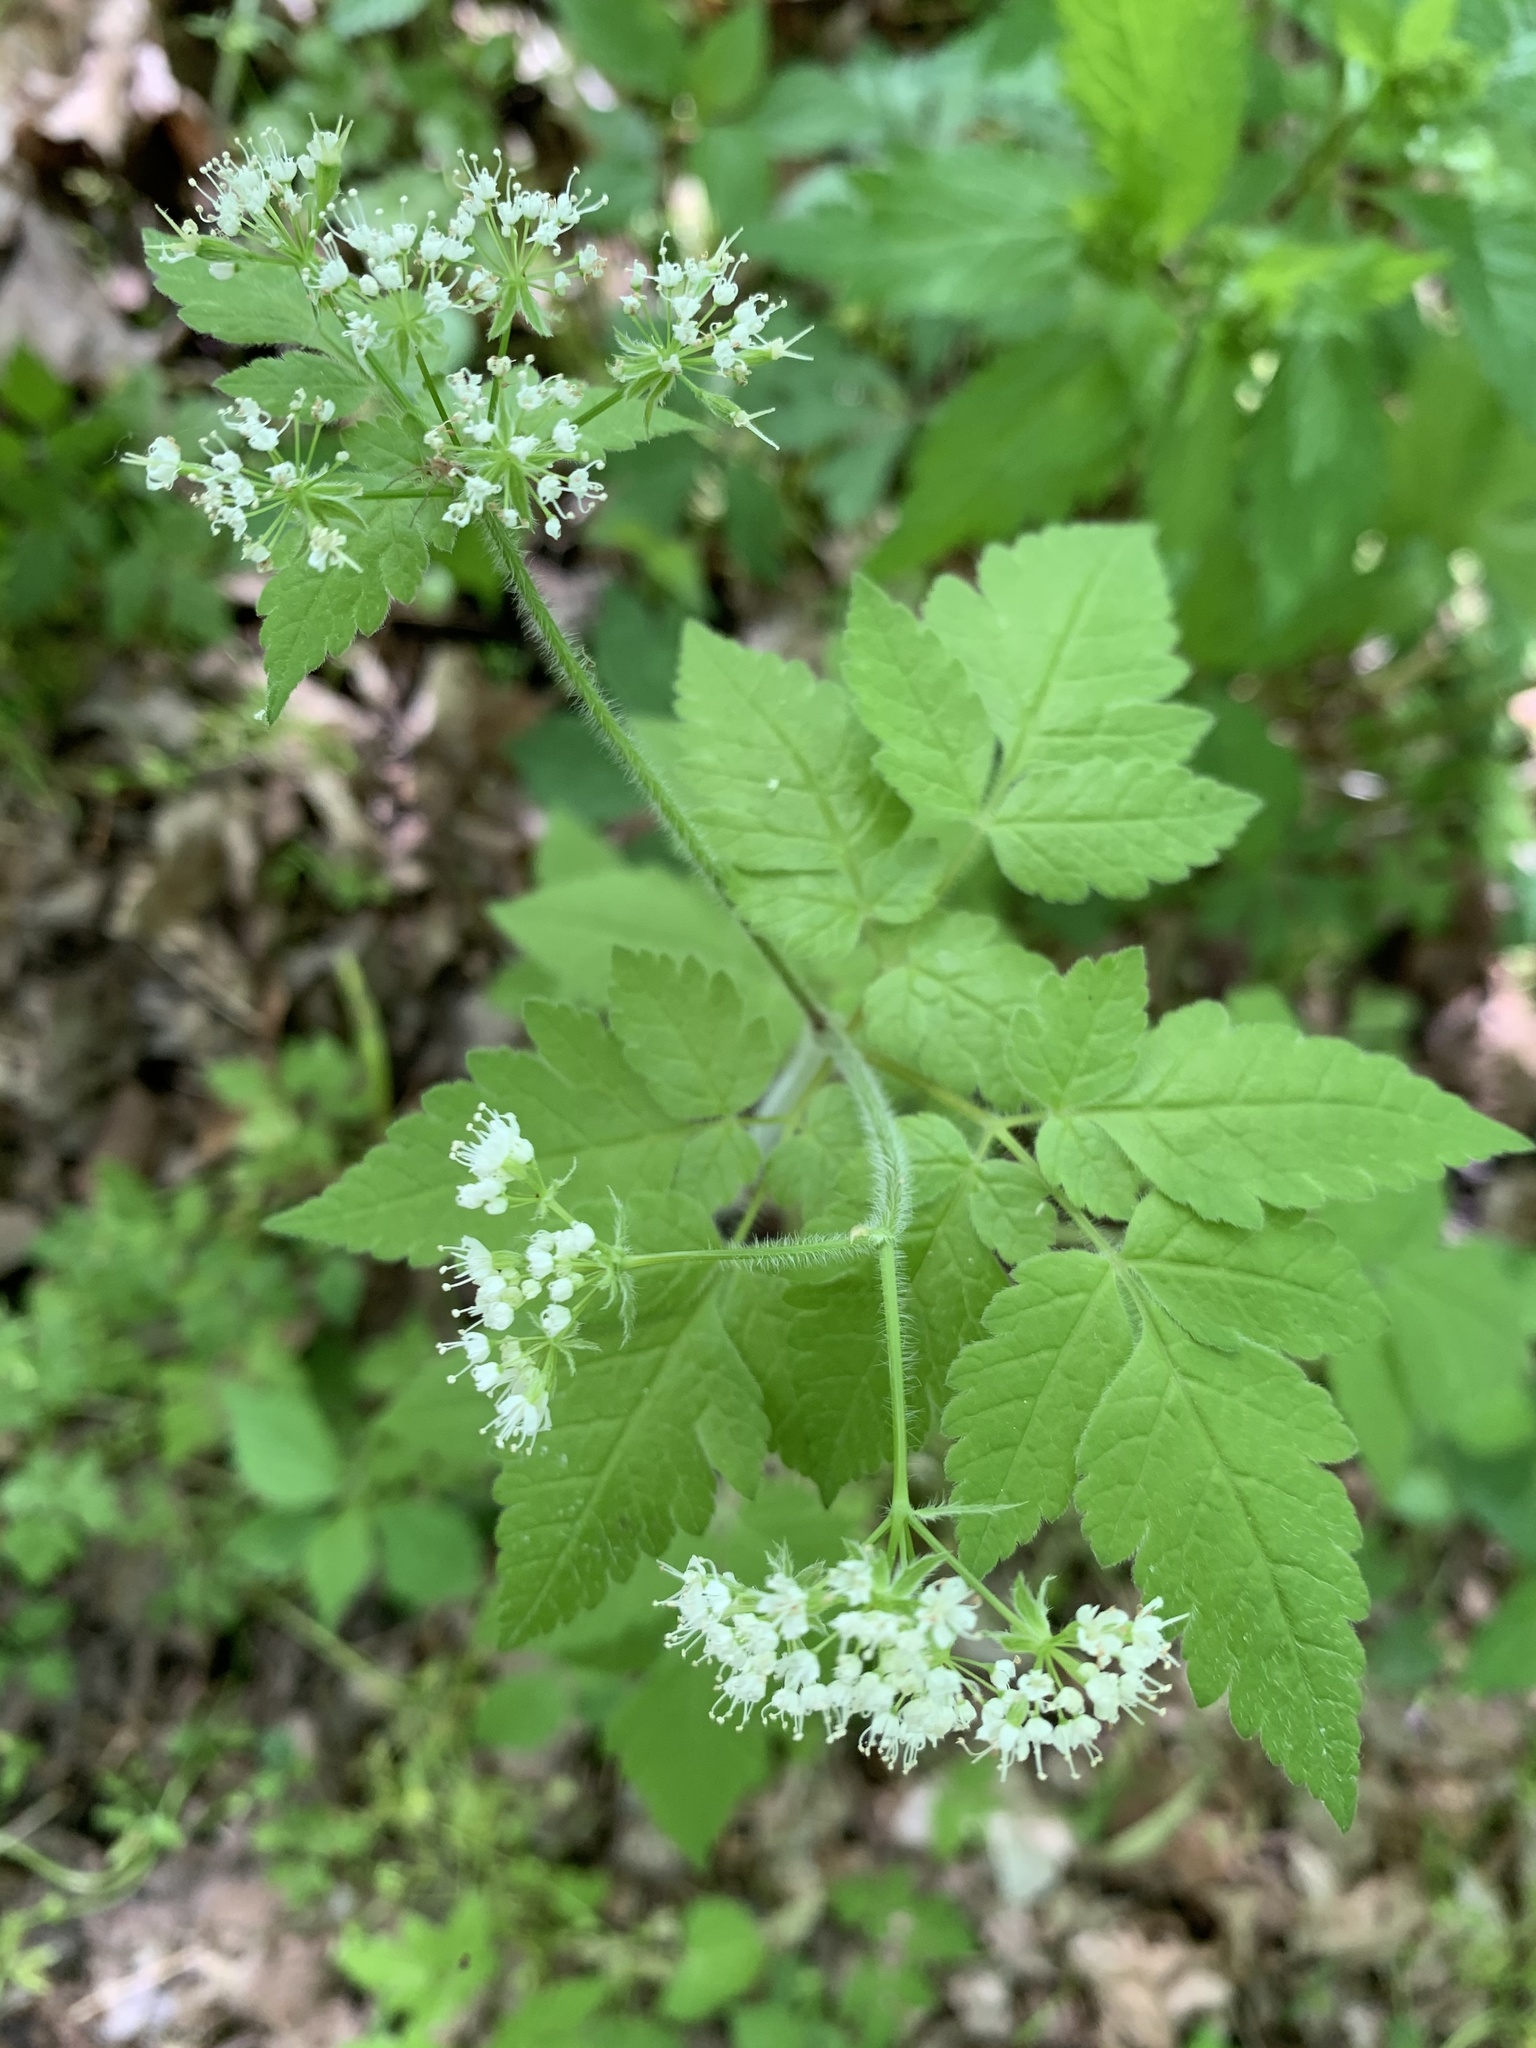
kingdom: Plantae
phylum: Tracheophyta
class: Magnoliopsida
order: Apiales
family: Apiaceae
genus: Osmorhiza
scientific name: Osmorhiza longistylis
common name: Smooth sweet cicely
